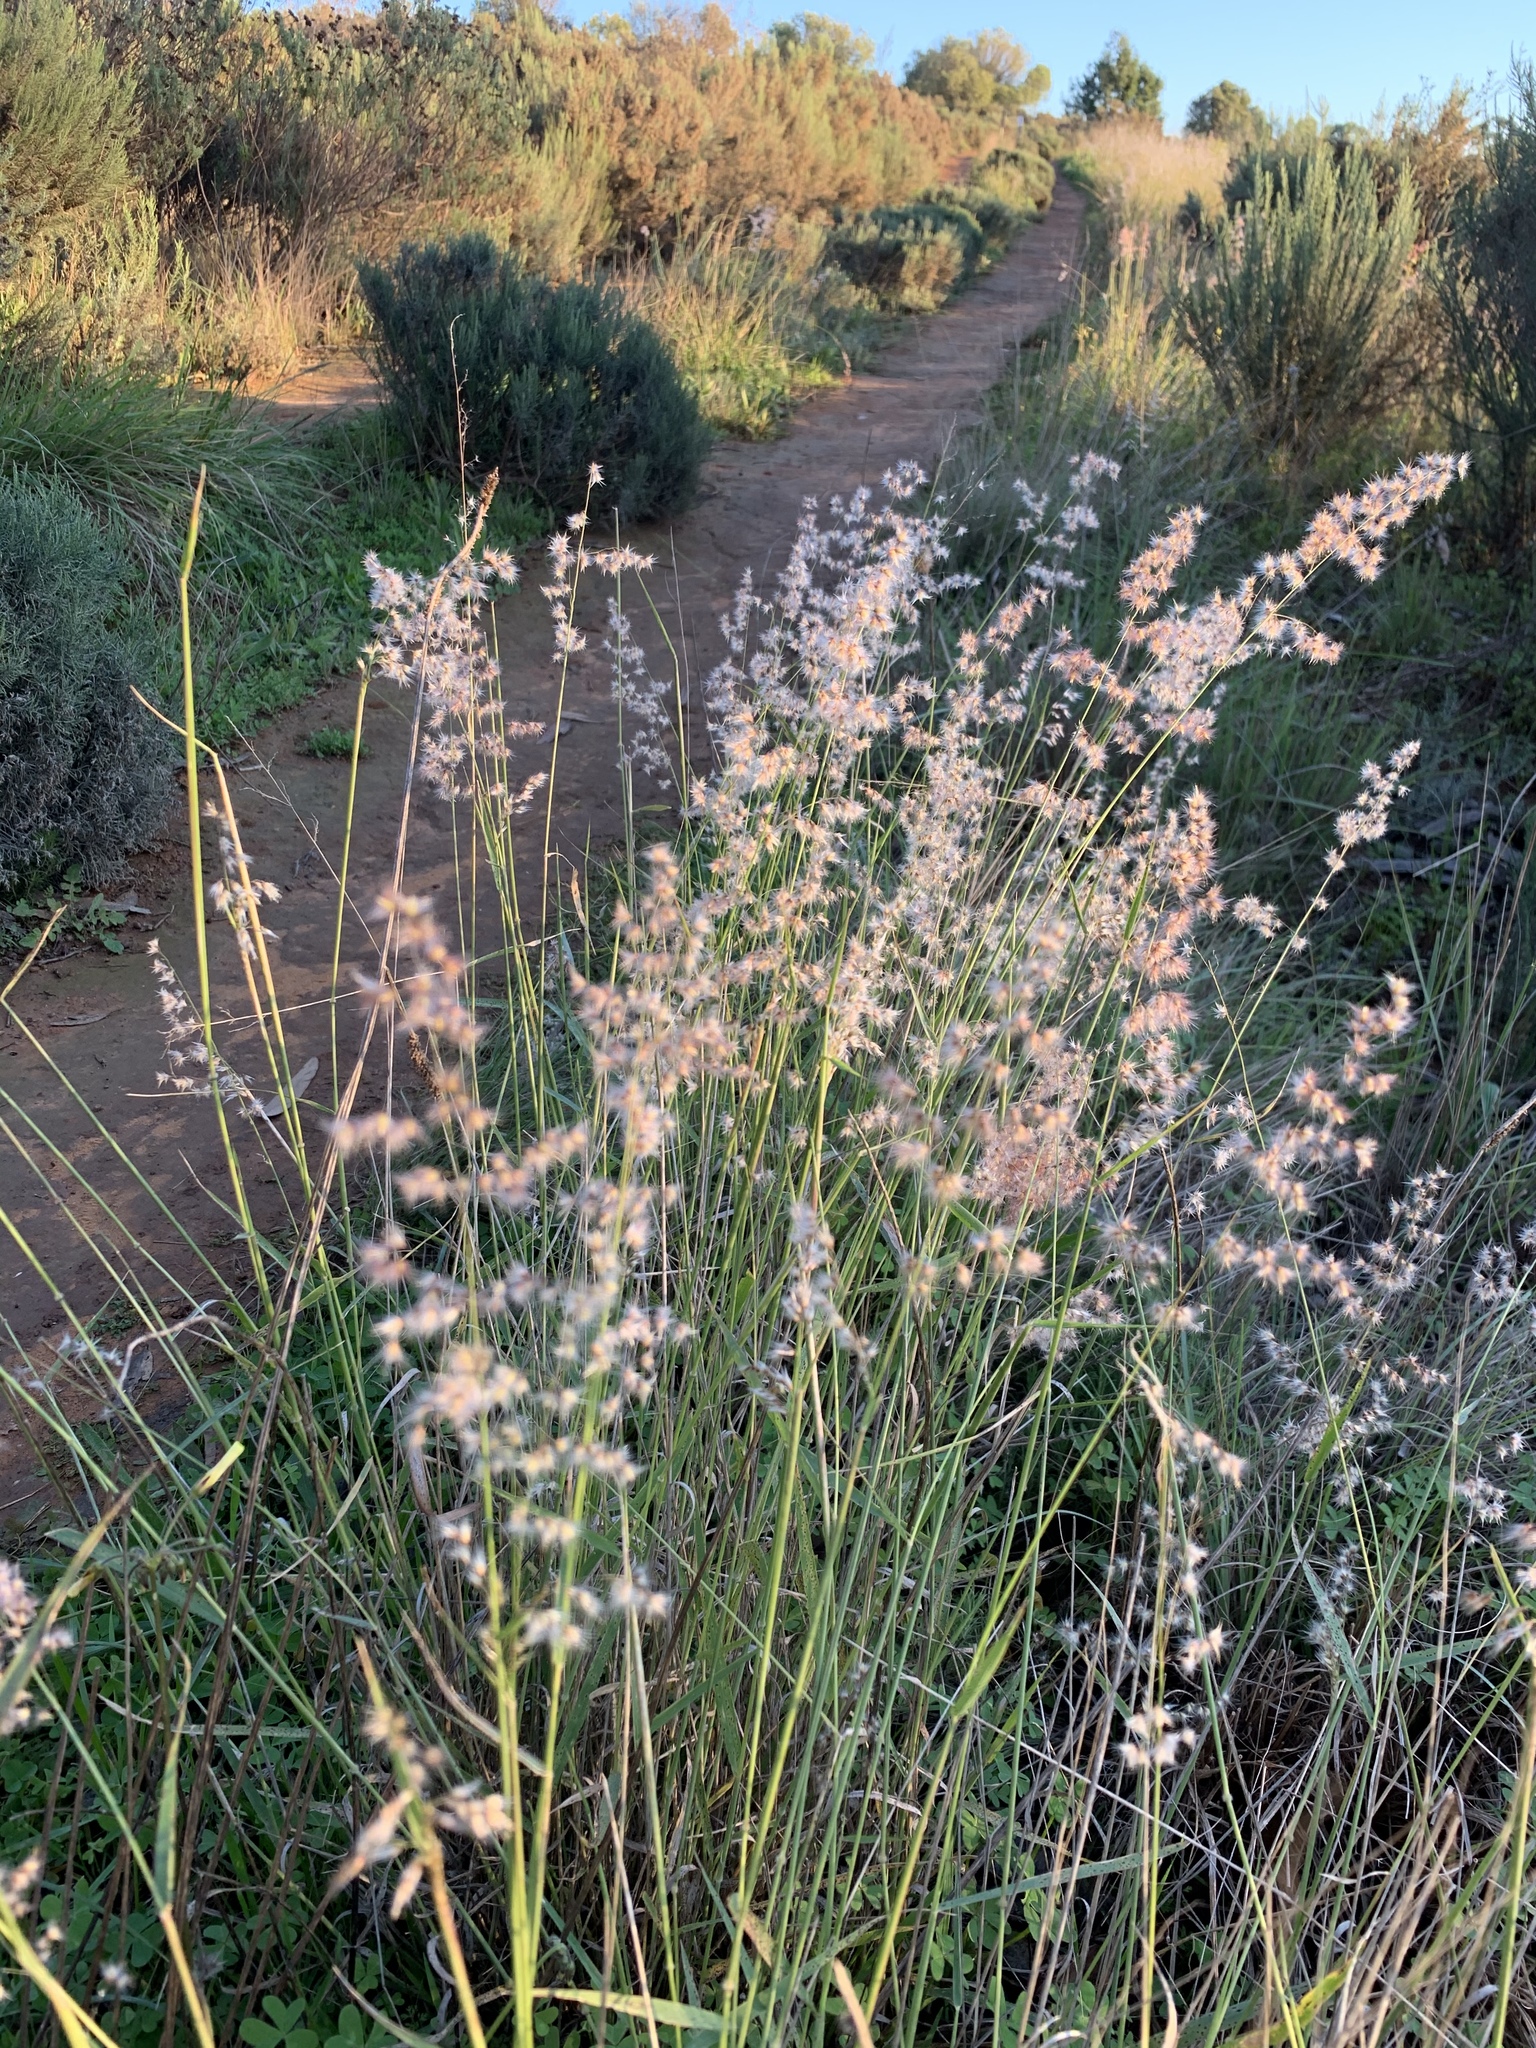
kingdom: Plantae
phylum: Tracheophyta
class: Liliopsida
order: Poales
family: Poaceae
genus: Melinis
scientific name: Melinis repens
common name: Rose natal grass
